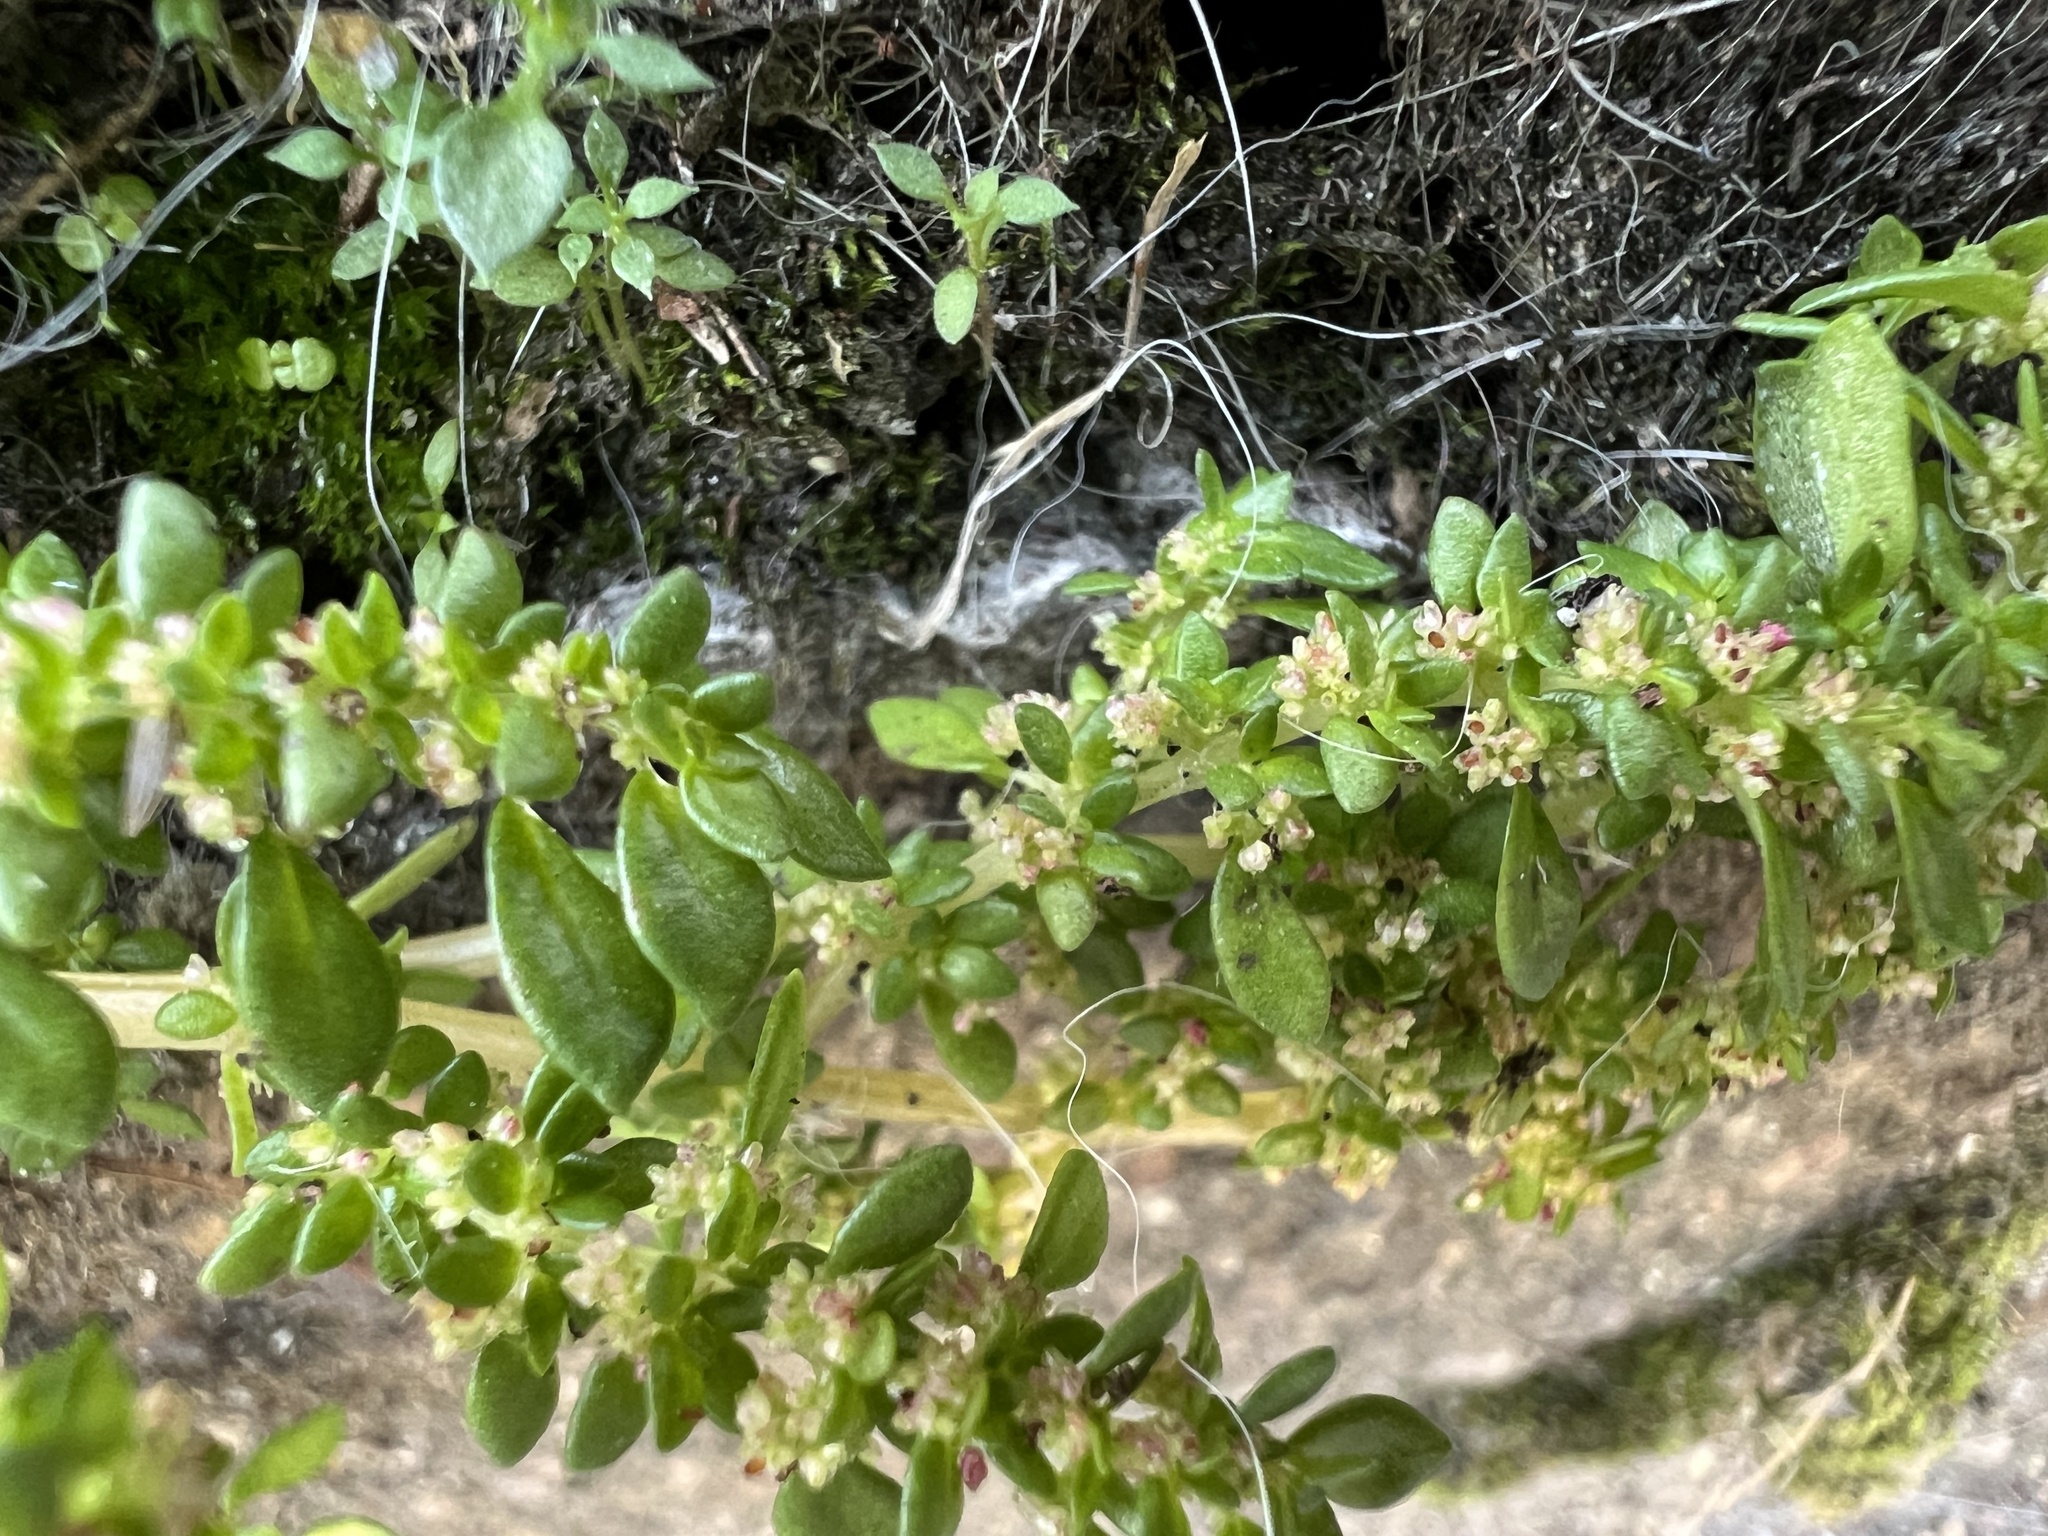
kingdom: Plantae
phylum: Tracheophyta
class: Magnoliopsida
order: Rosales
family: Urticaceae
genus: Pilea
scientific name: Pilea microphylla
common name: Artillery-plant
